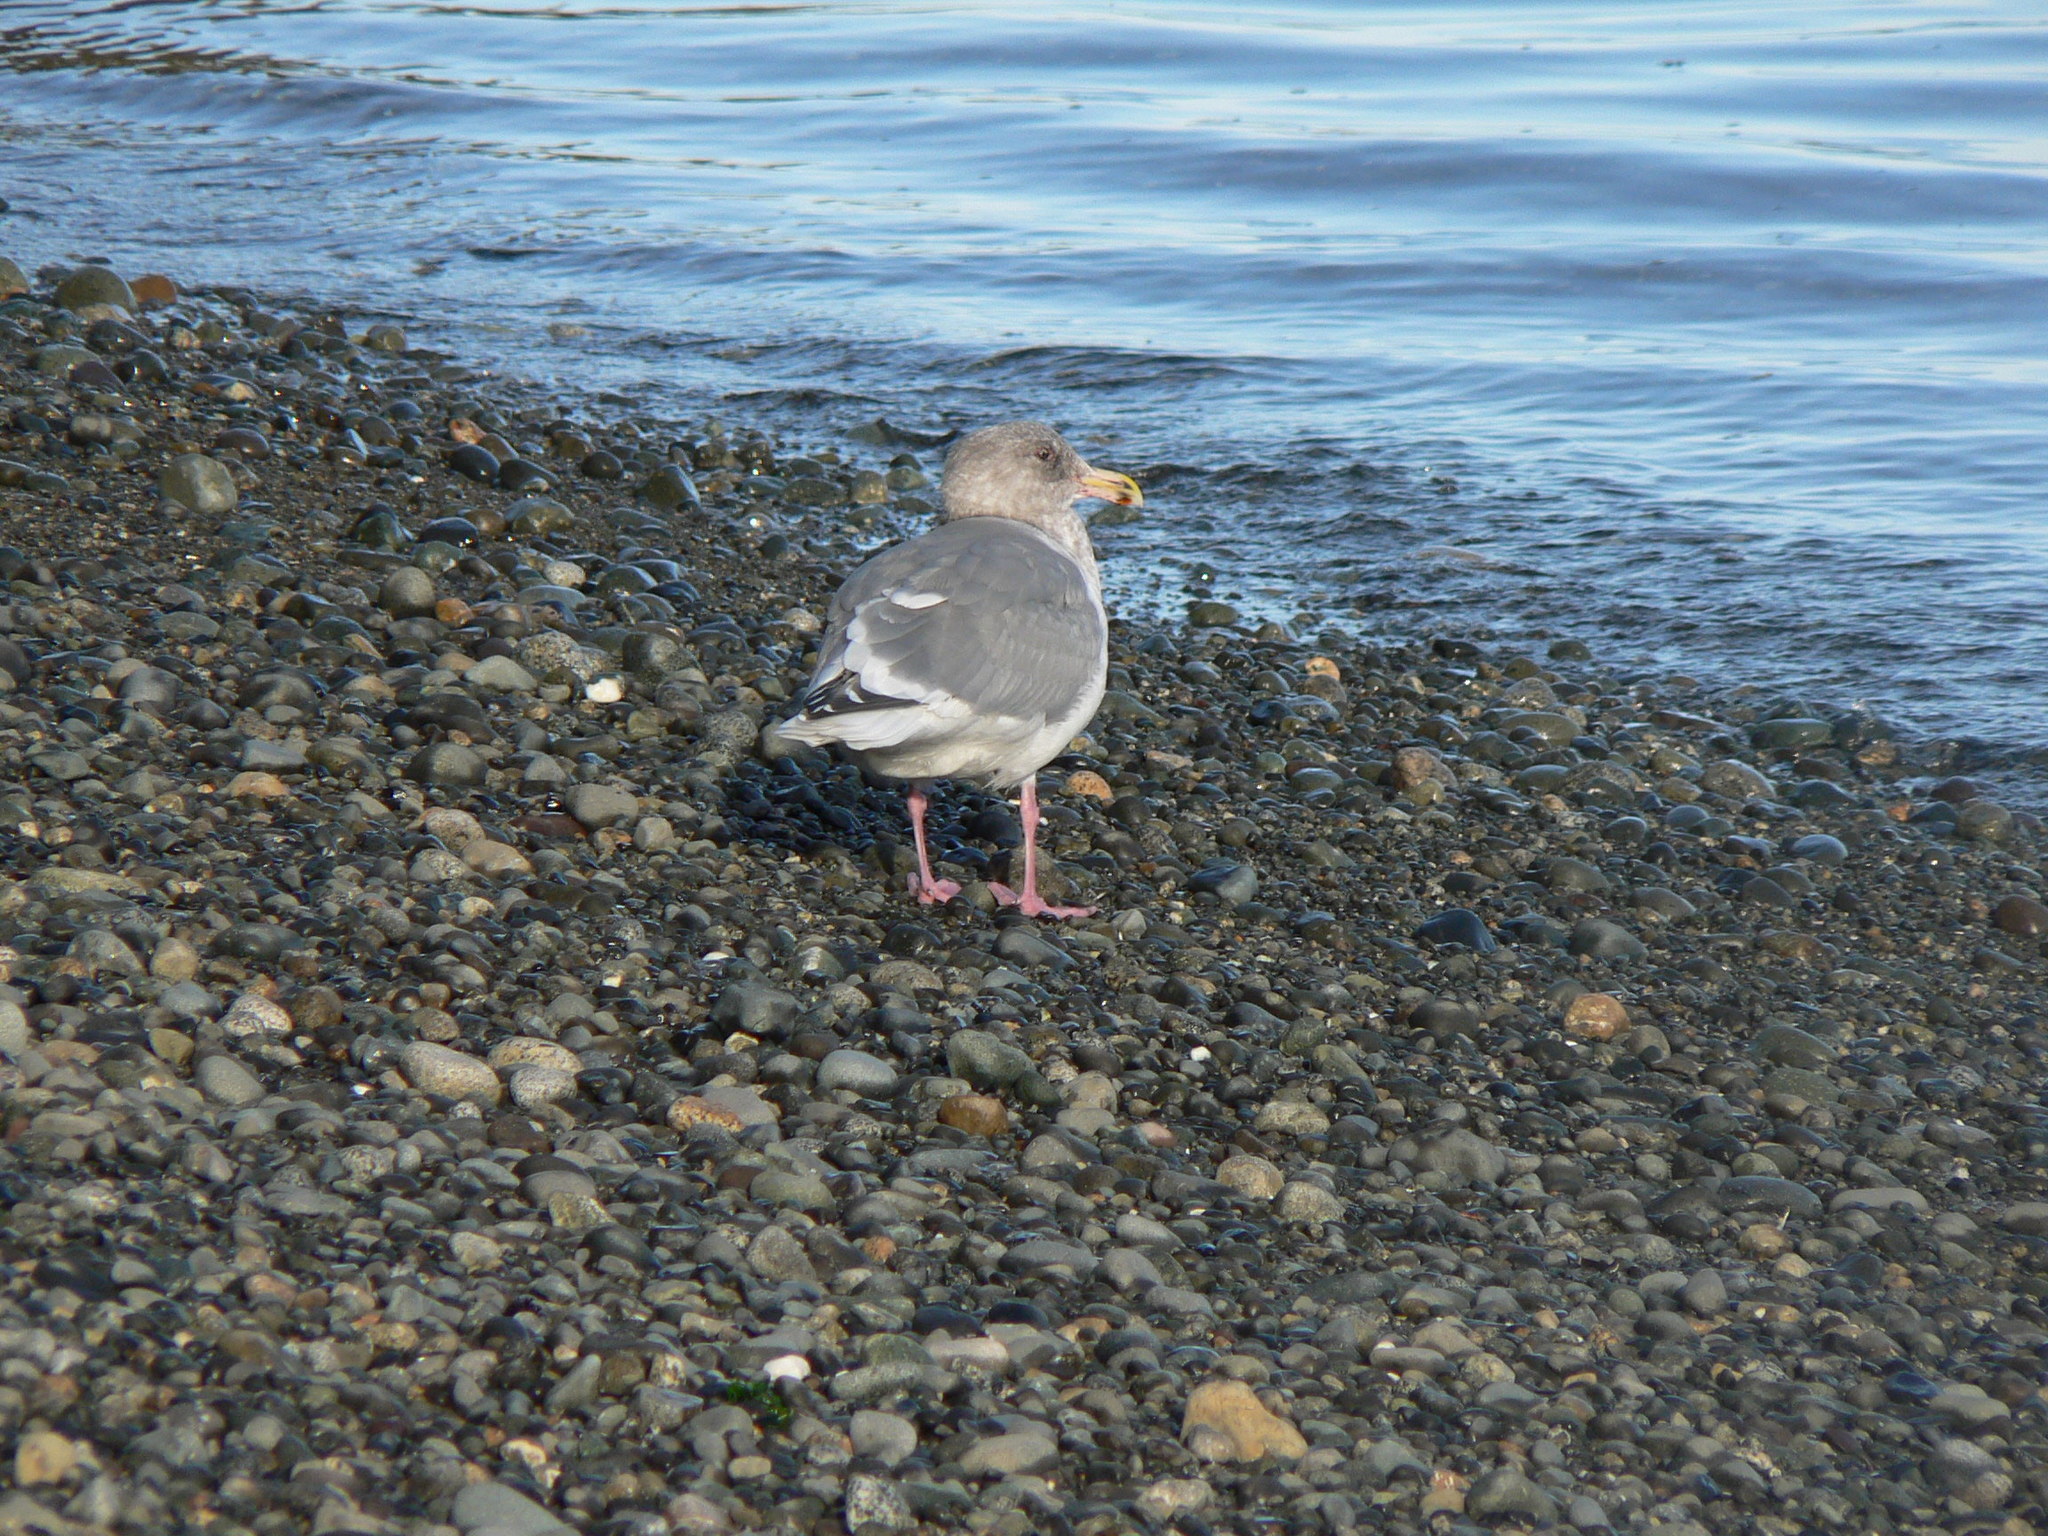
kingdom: Animalia
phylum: Chordata
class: Aves
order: Charadriiformes
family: Laridae
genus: Larus
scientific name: Larus
